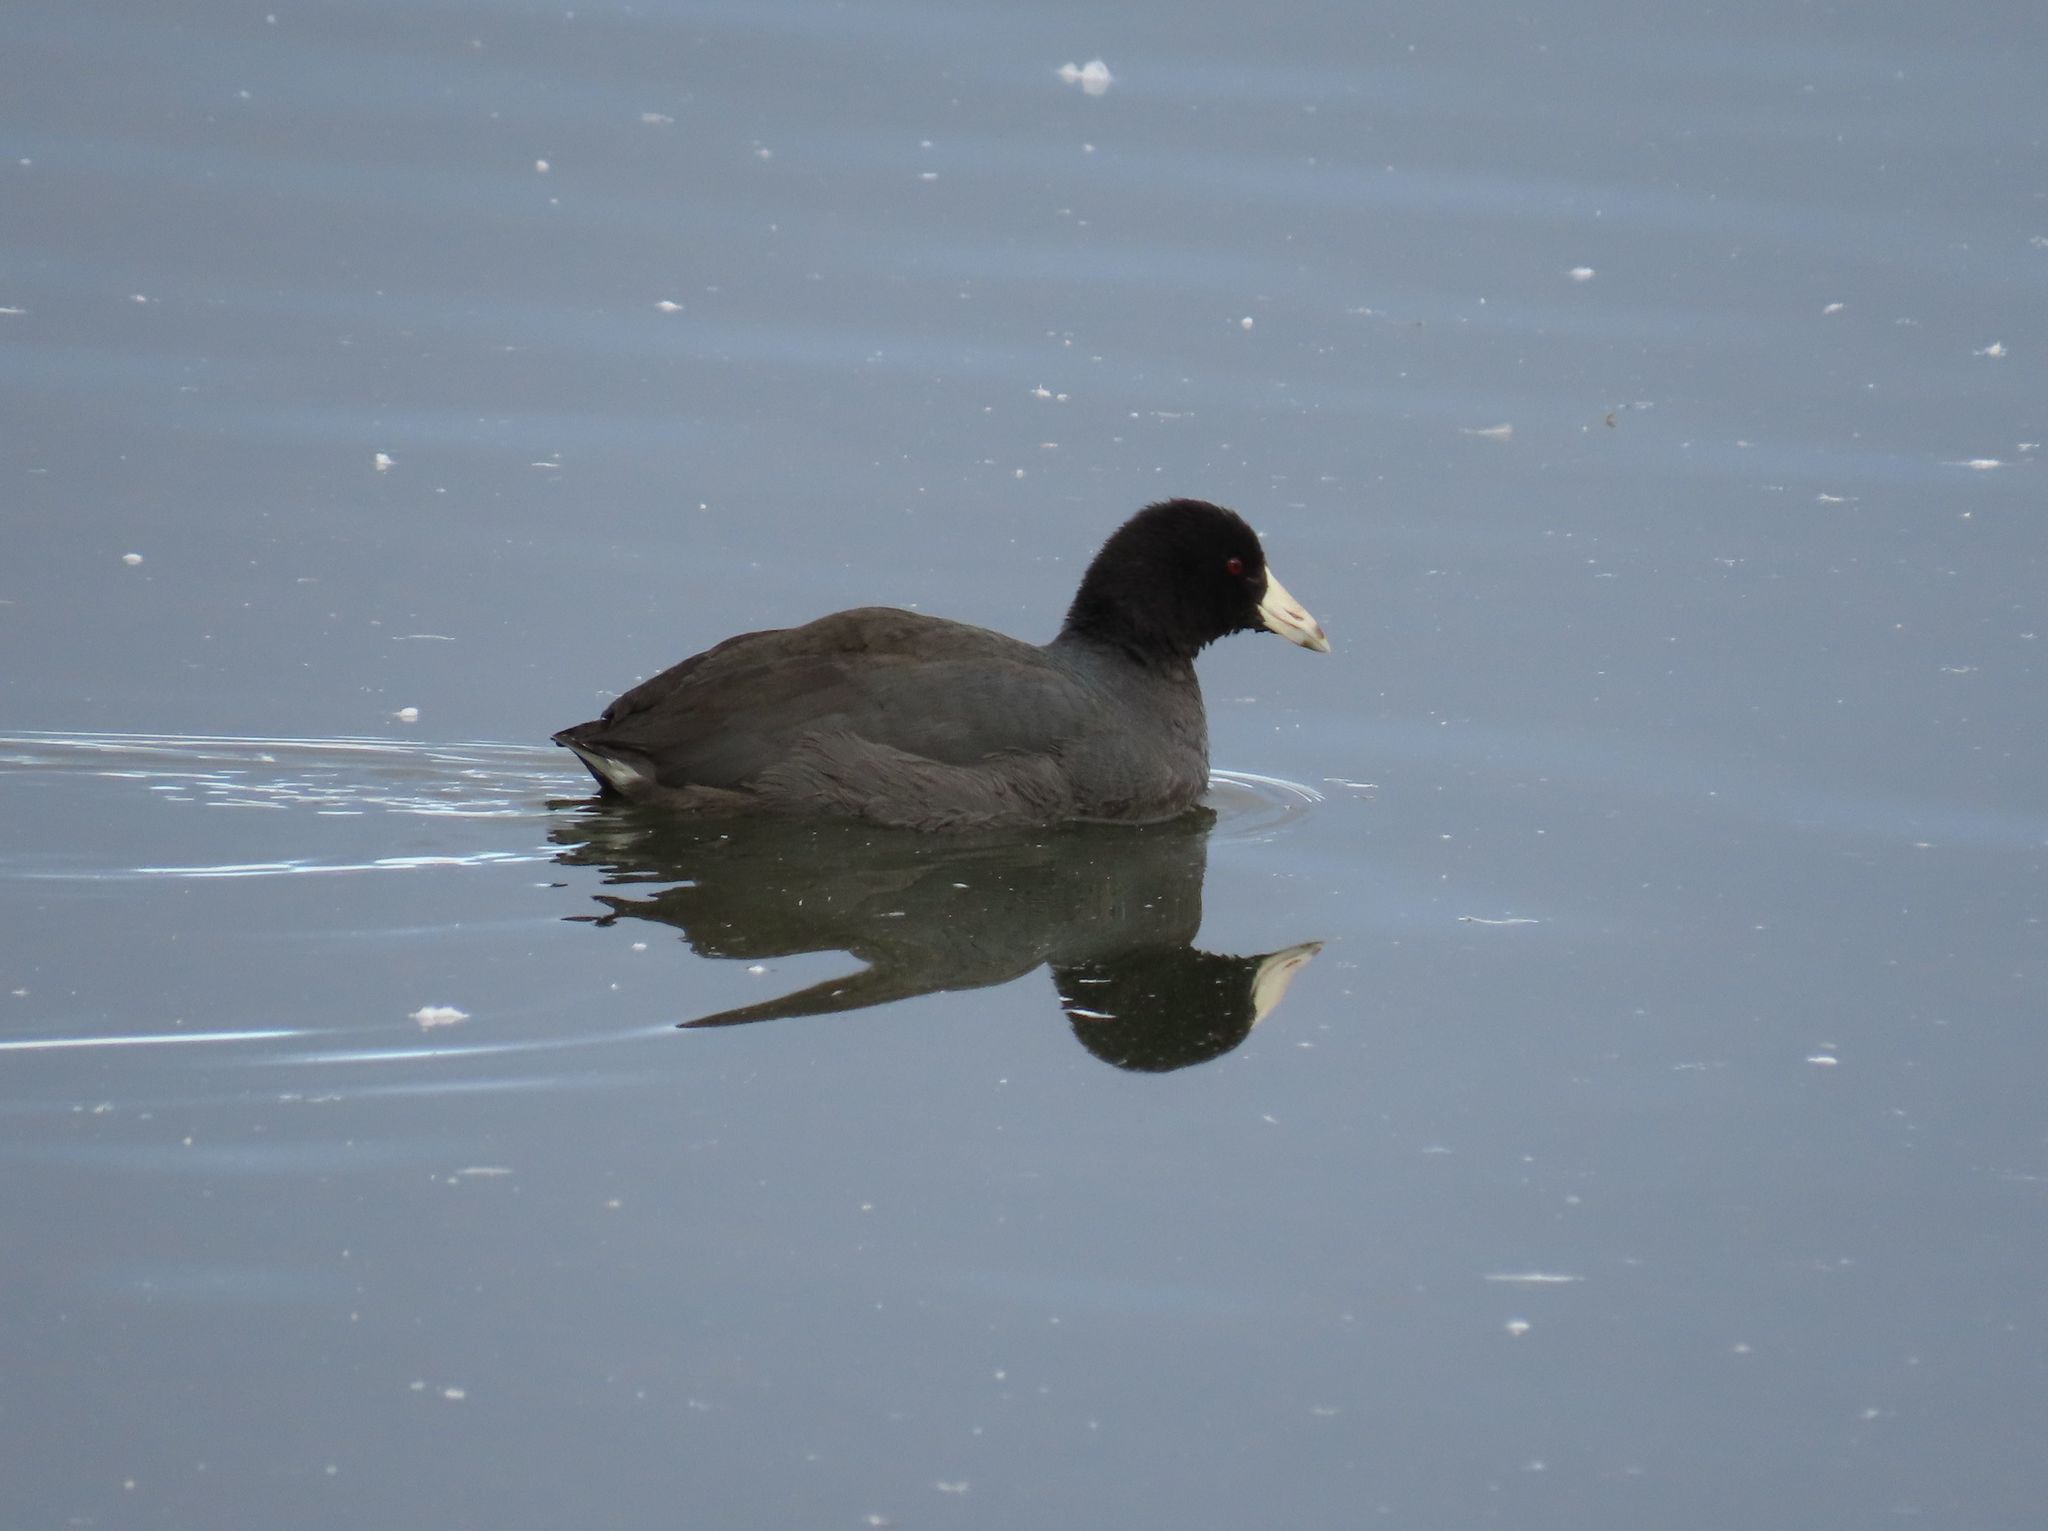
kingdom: Animalia
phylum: Chordata
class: Aves
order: Gruiformes
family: Rallidae
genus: Fulica
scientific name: Fulica americana
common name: American coot
